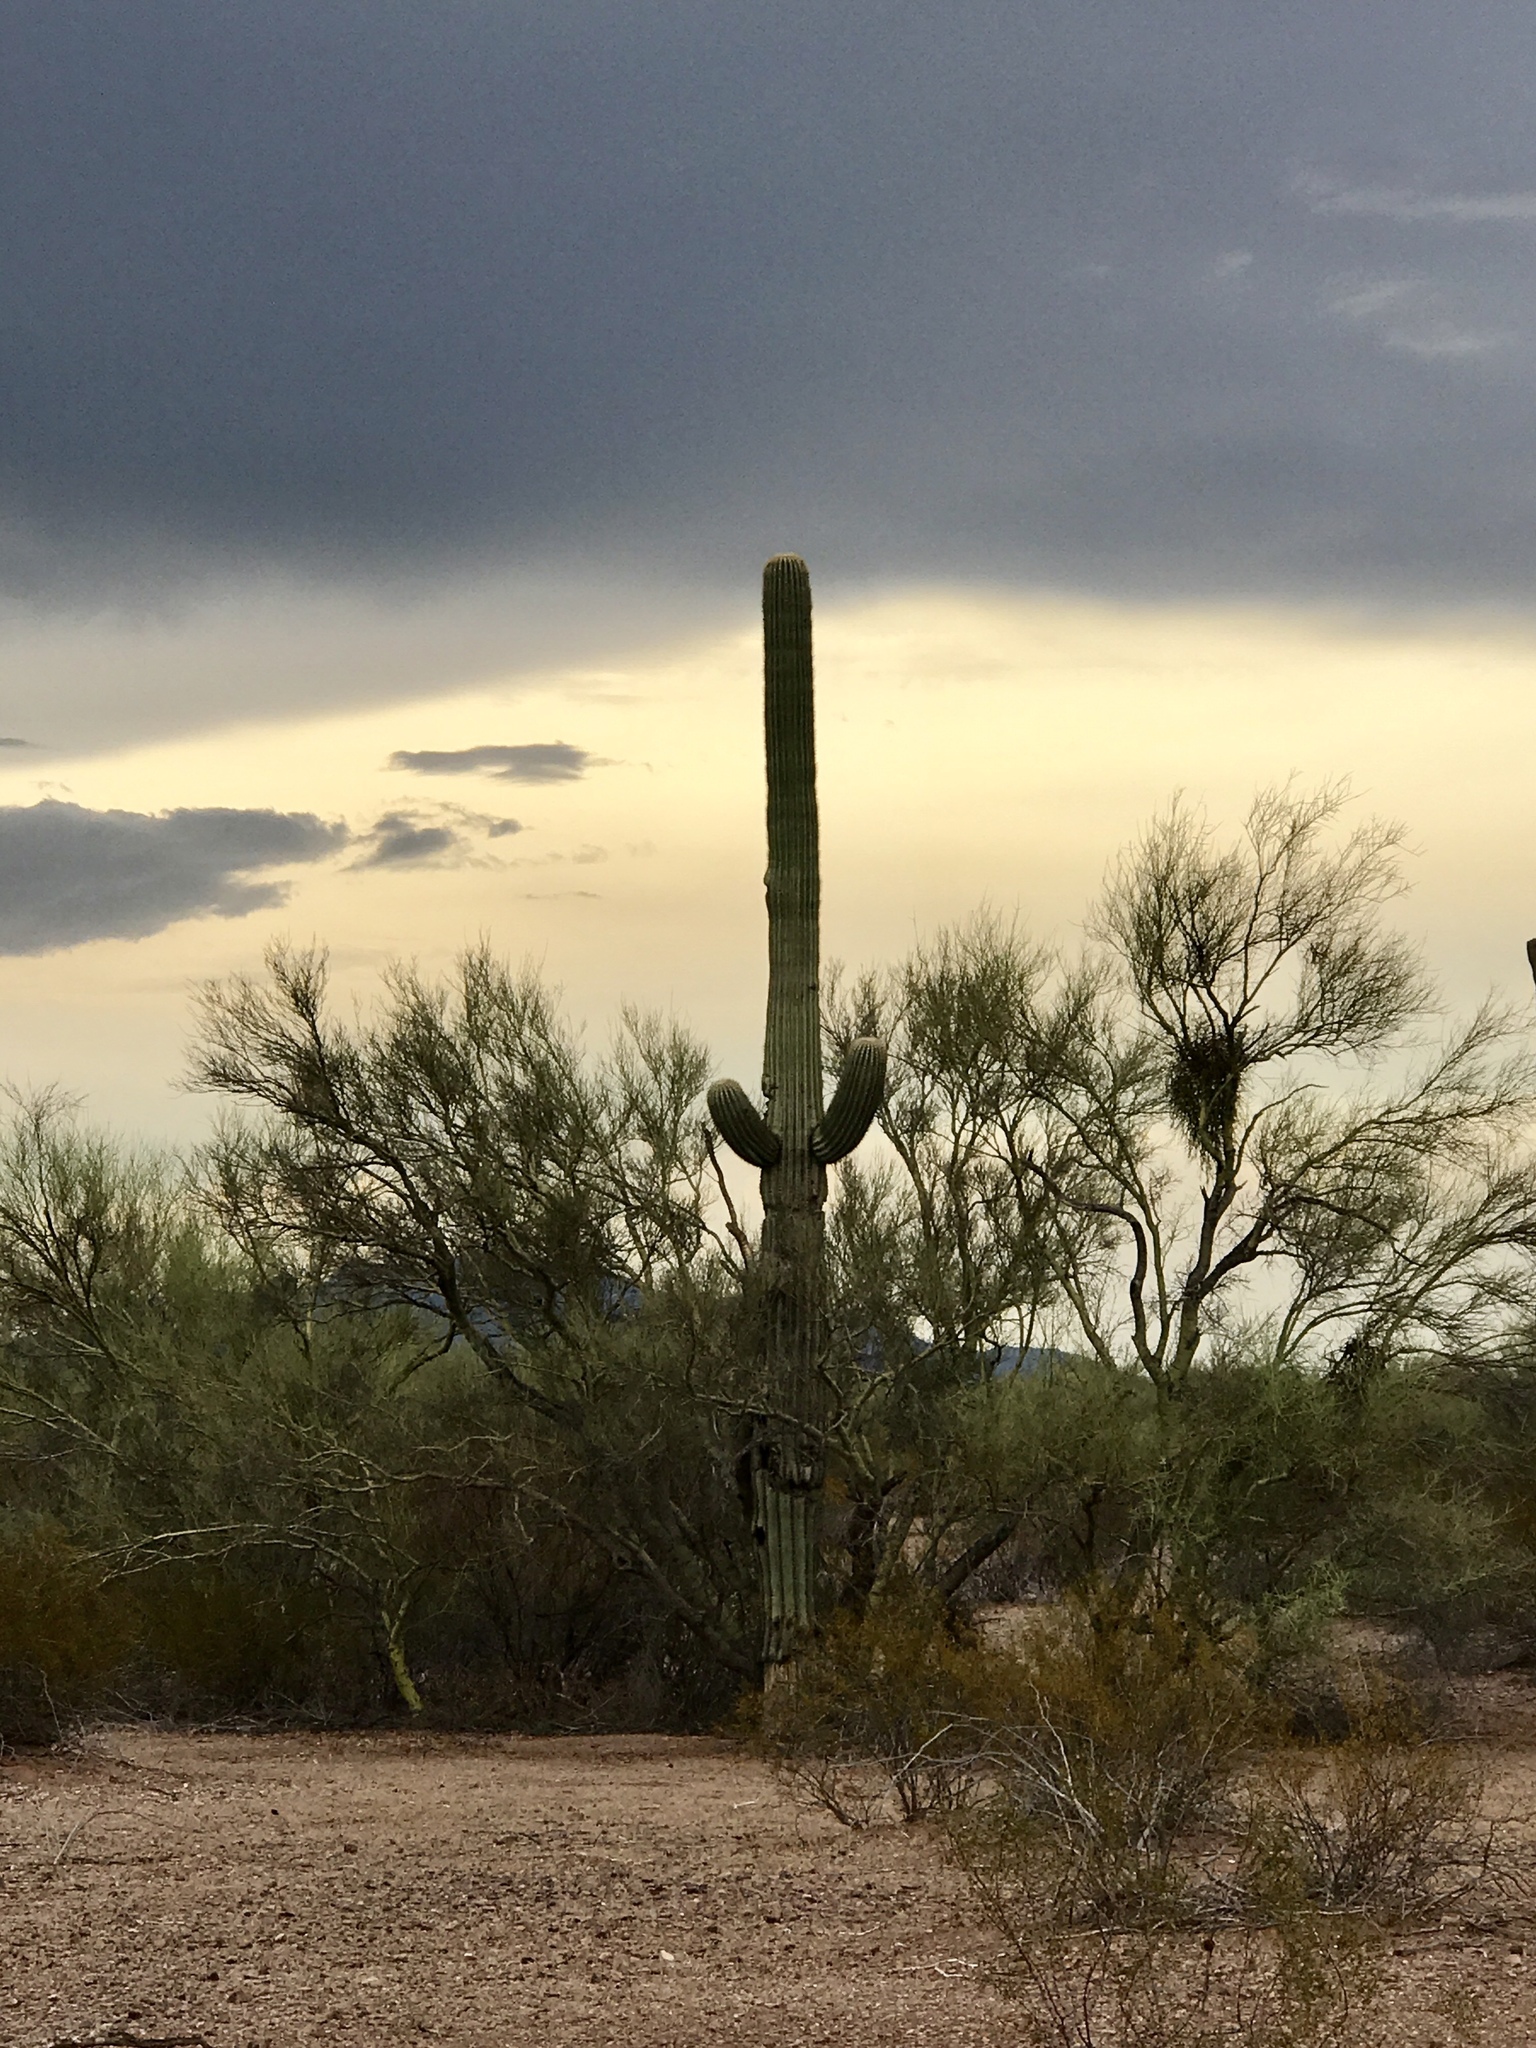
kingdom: Plantae
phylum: Tracheophyta
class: Magnoliopsida
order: Caryophyllales
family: Cactaceae
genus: Carnegiea
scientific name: Carnegiea gigantea
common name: Saguaro
